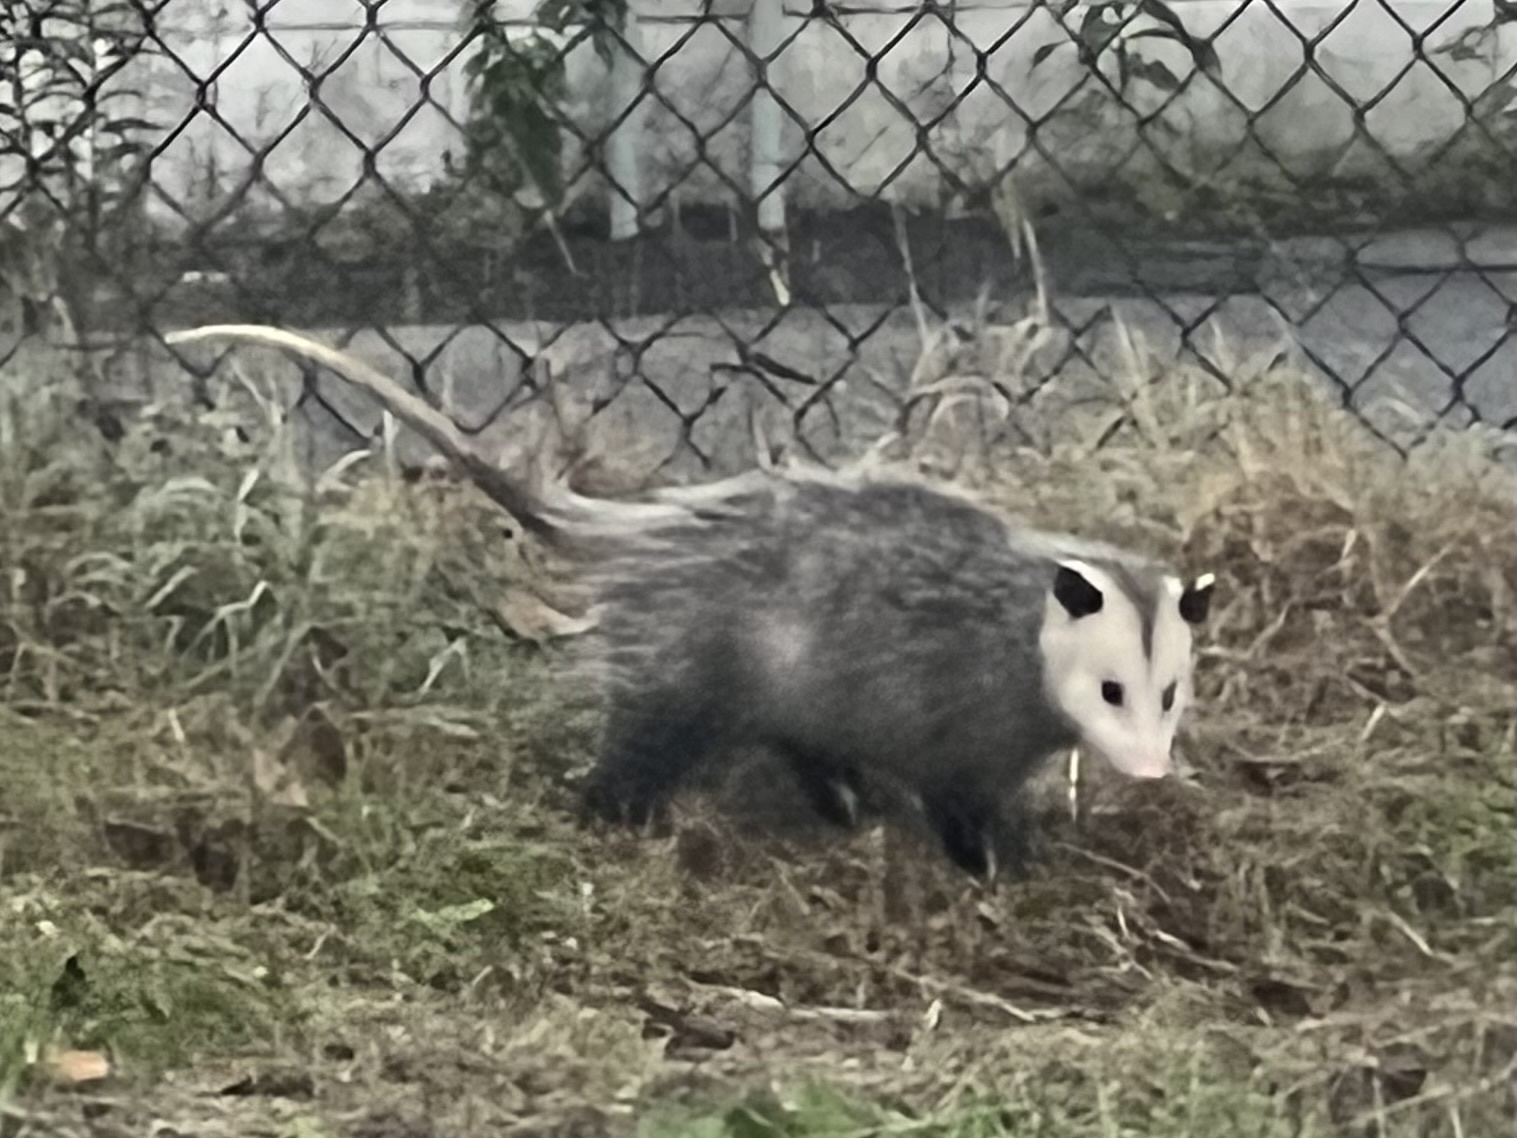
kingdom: Animalia
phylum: Chordata
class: Mammalia
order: Didelphimorphia
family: Didelphidae
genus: Didelphis
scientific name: Didelphis virginiana
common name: Virginia opossum
